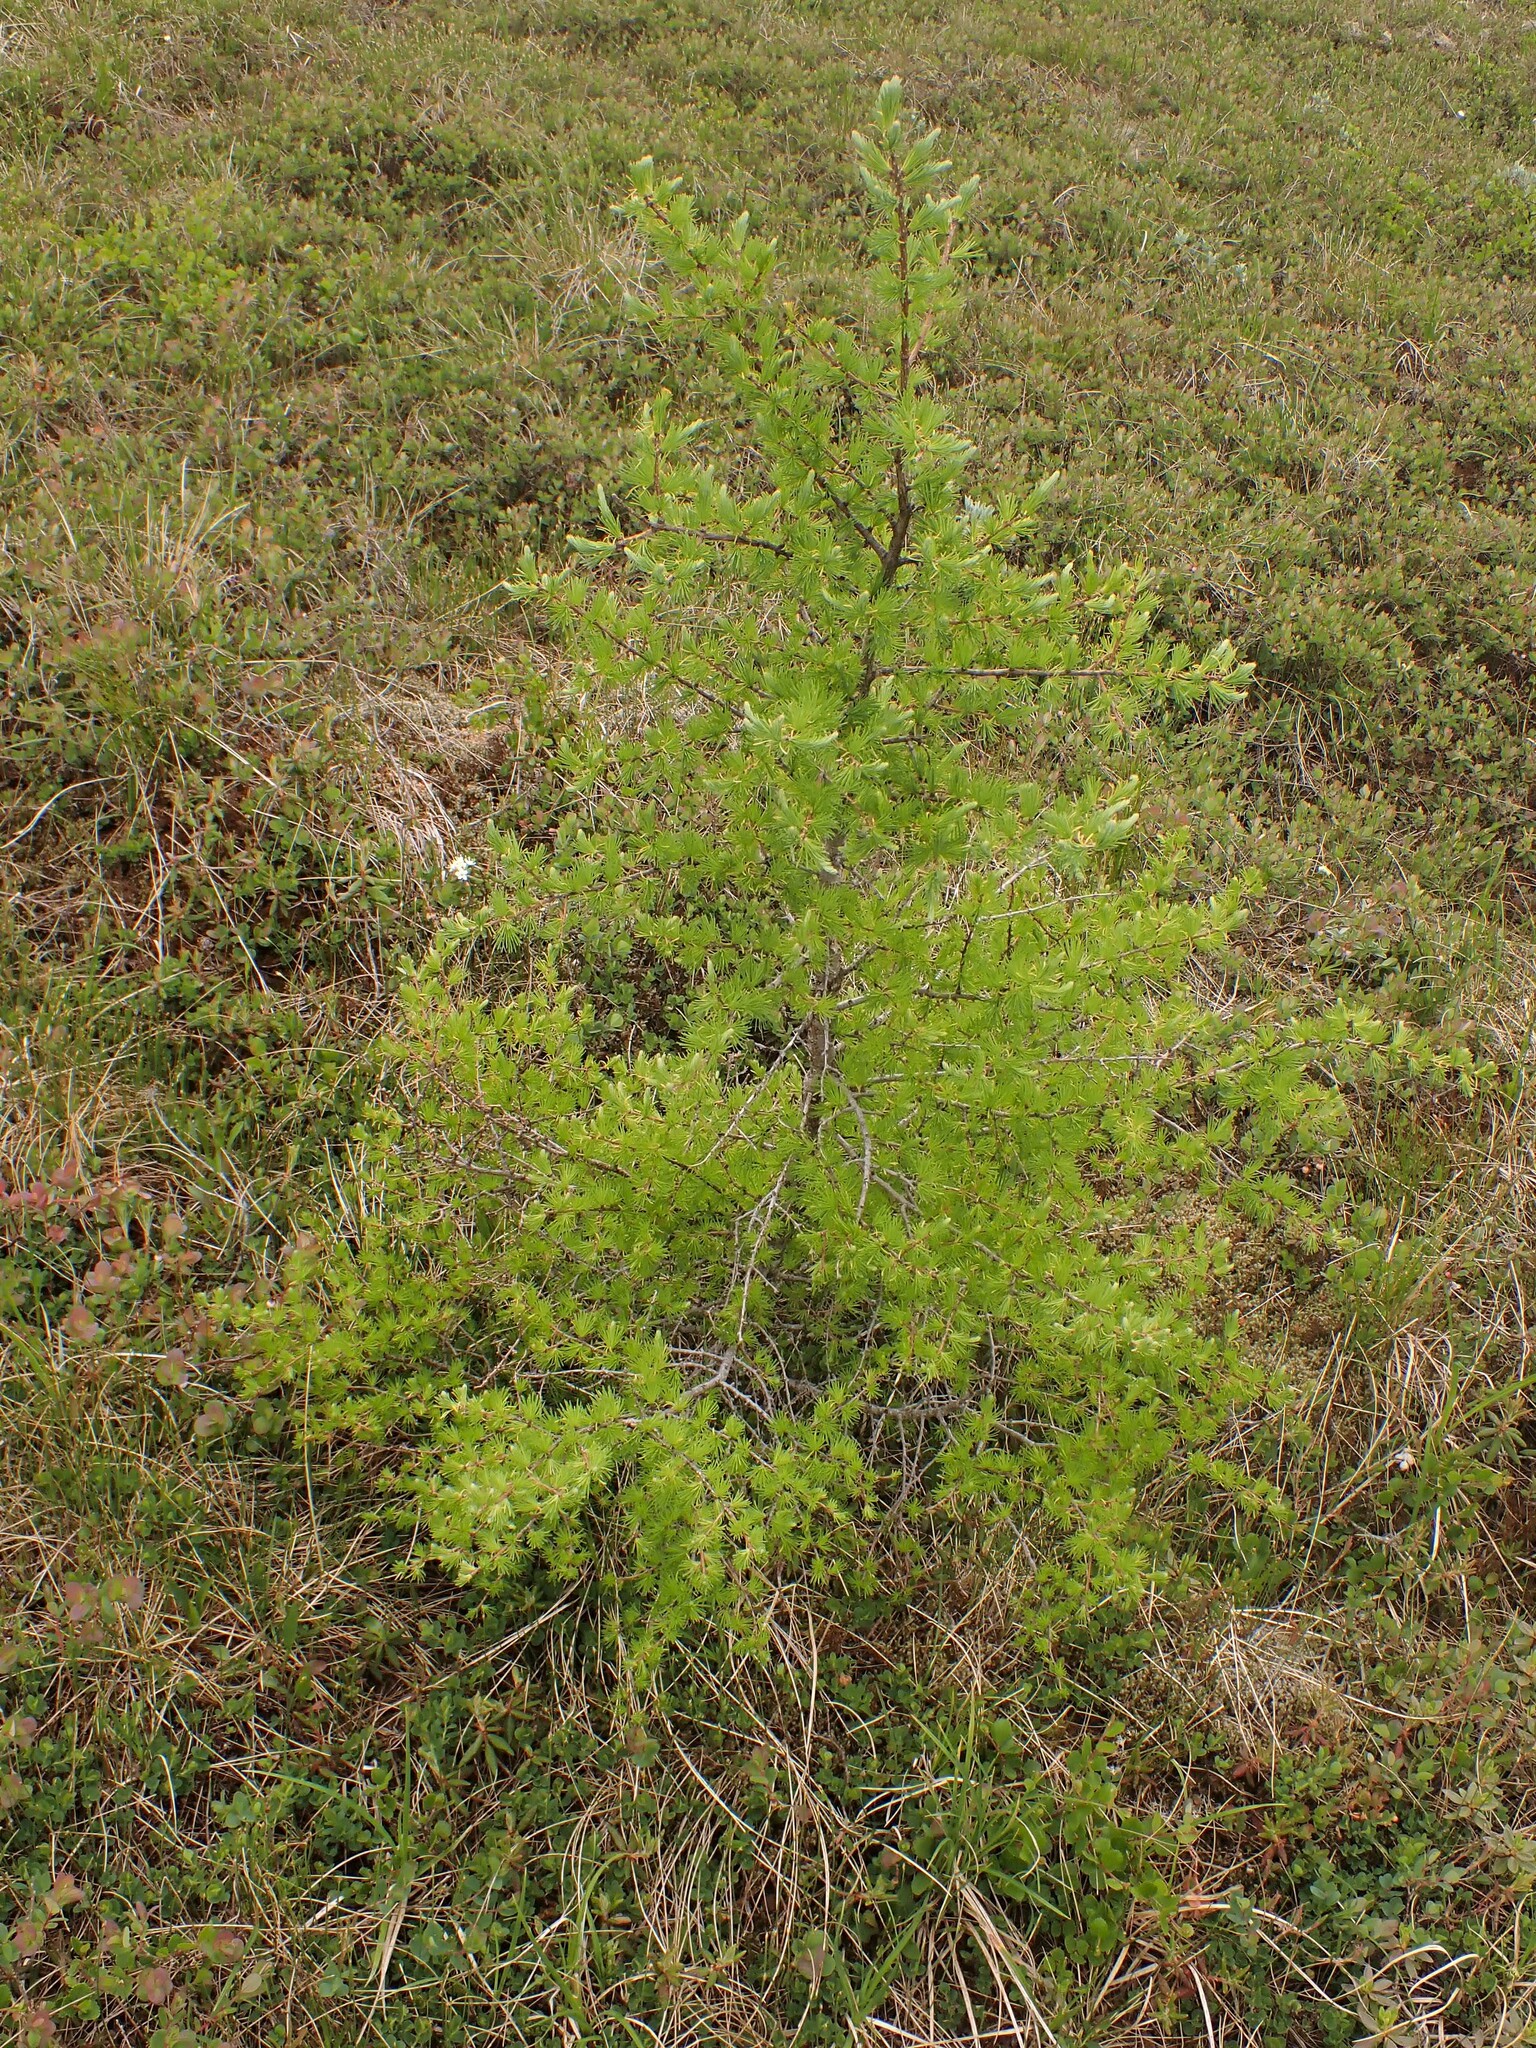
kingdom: Plantae
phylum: Tracheophyta
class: Pinopsida
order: Pinales
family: Pinaceae
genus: Larix
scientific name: Larix laricina
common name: American larch
